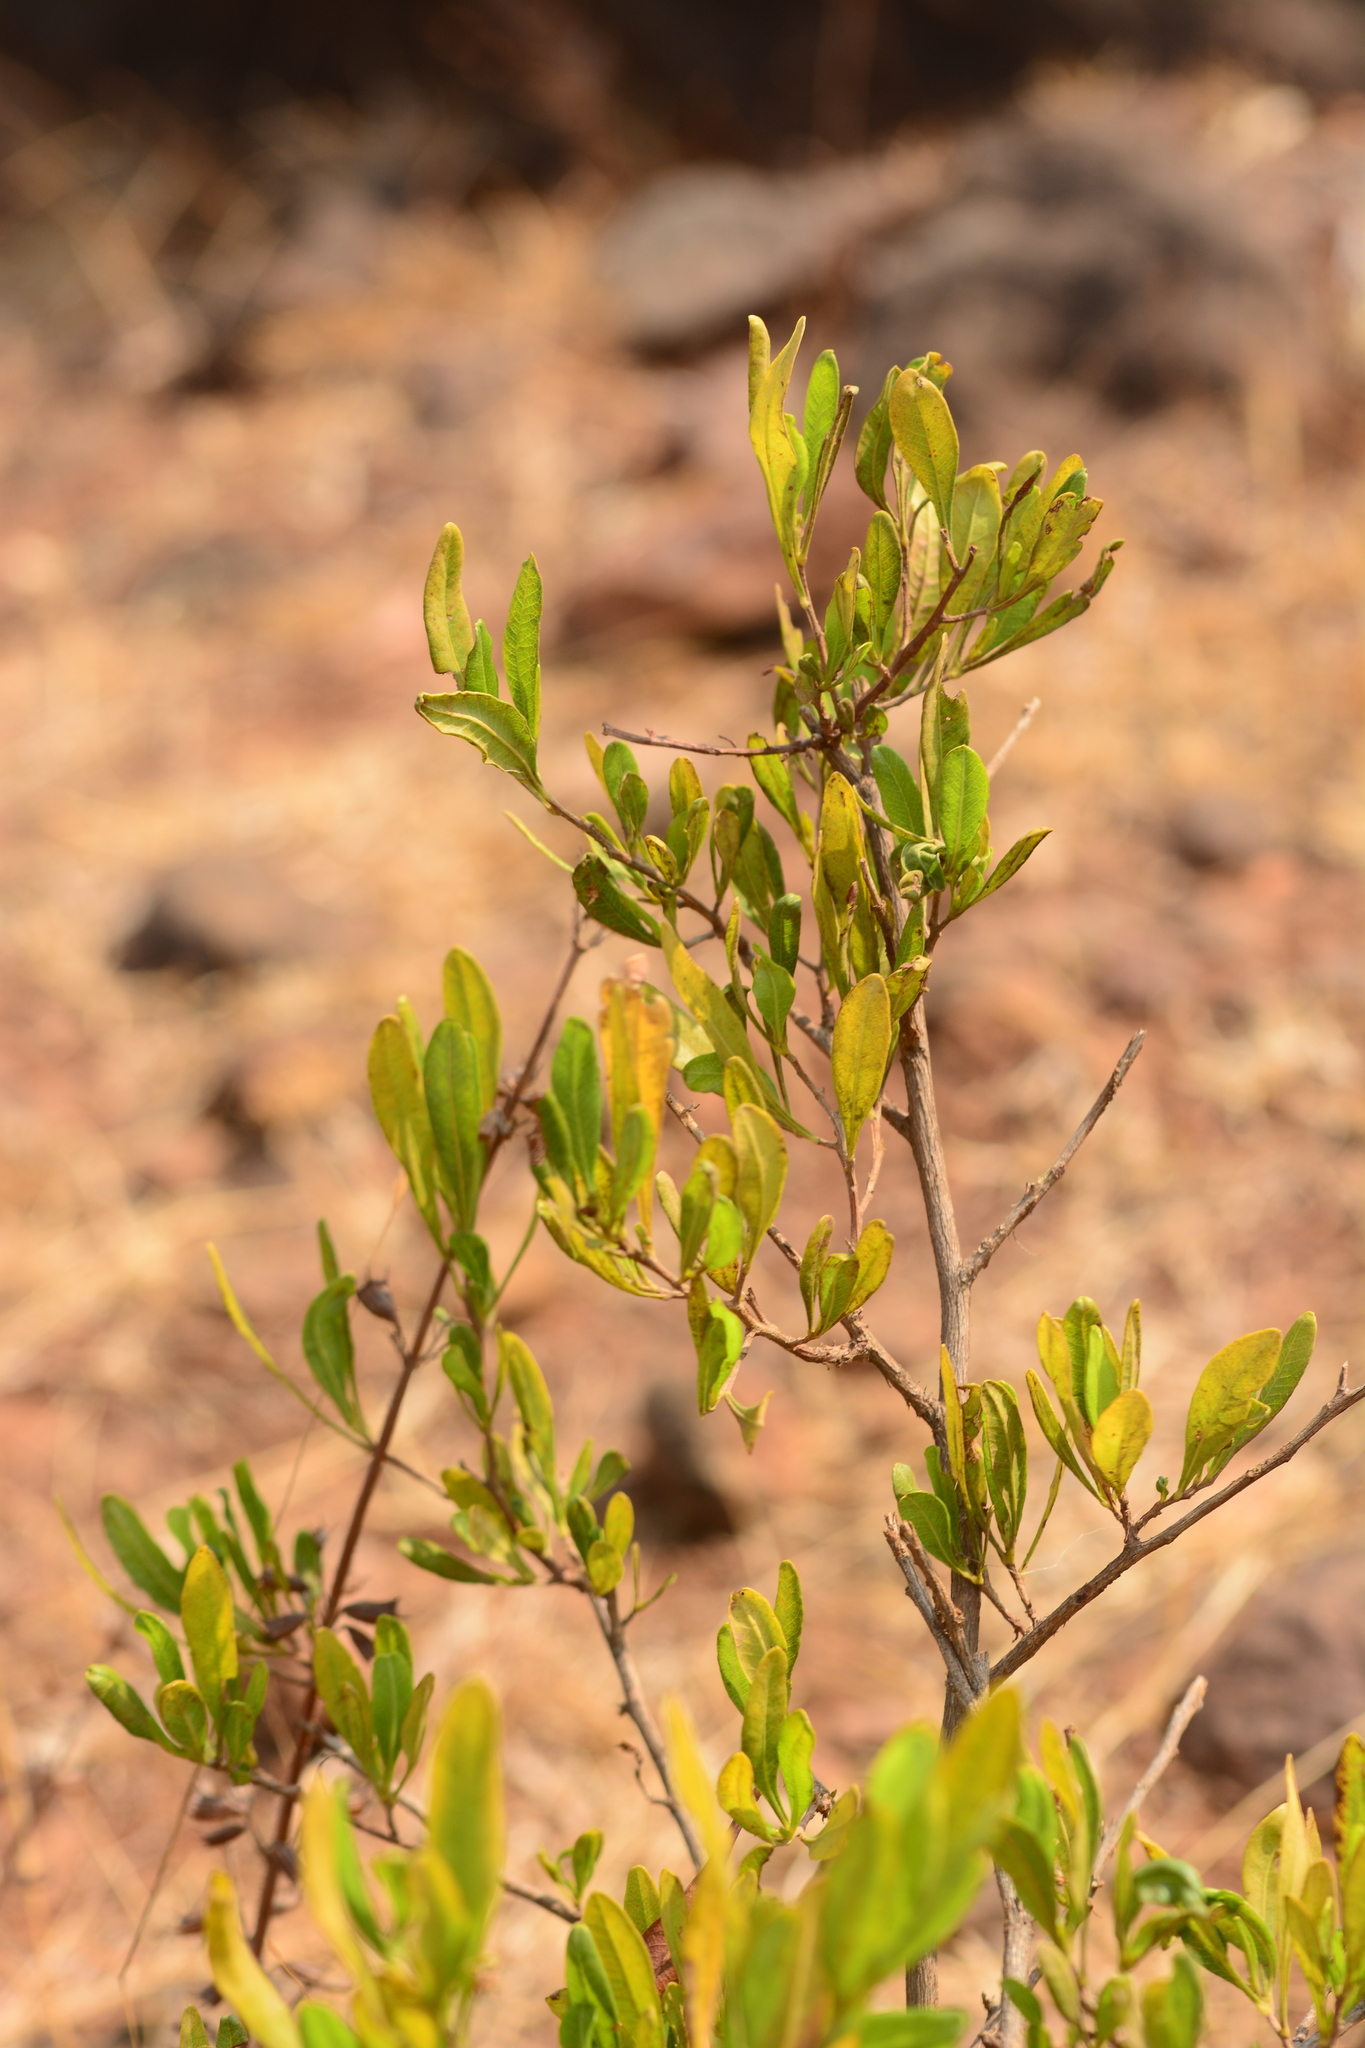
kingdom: Plantae
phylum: Tracheophyta
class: Magnoliopsida
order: Sapindales
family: Sapindaceae
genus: Dodonaea
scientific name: Dodonaea viscosa
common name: Hopbush
